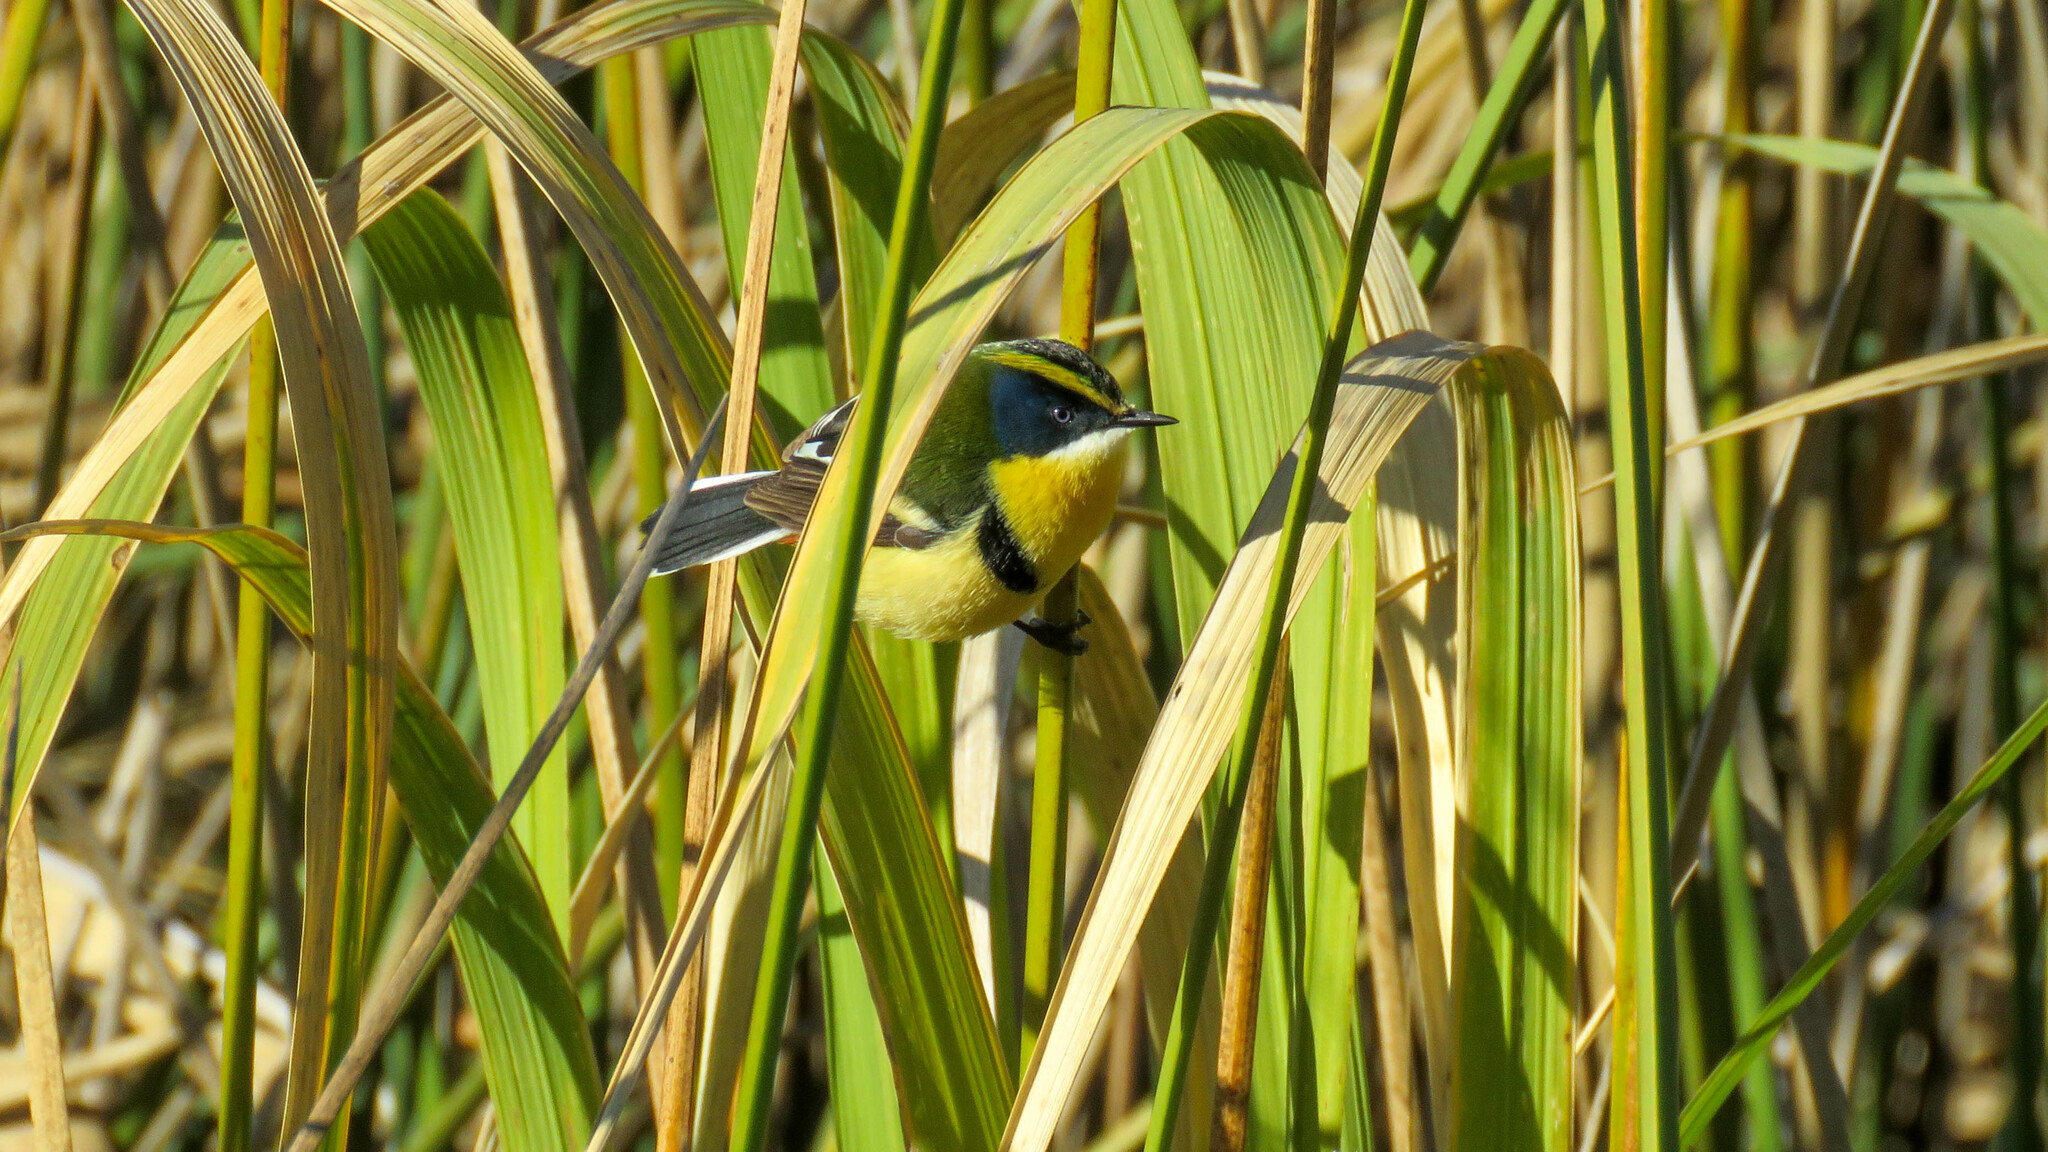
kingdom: Animalia
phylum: Chordata
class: Aves
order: Passeriformes
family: Tyrannidae
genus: Tachuris
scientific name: Tachuris rubrigastra
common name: Many-colored rush tyrant
